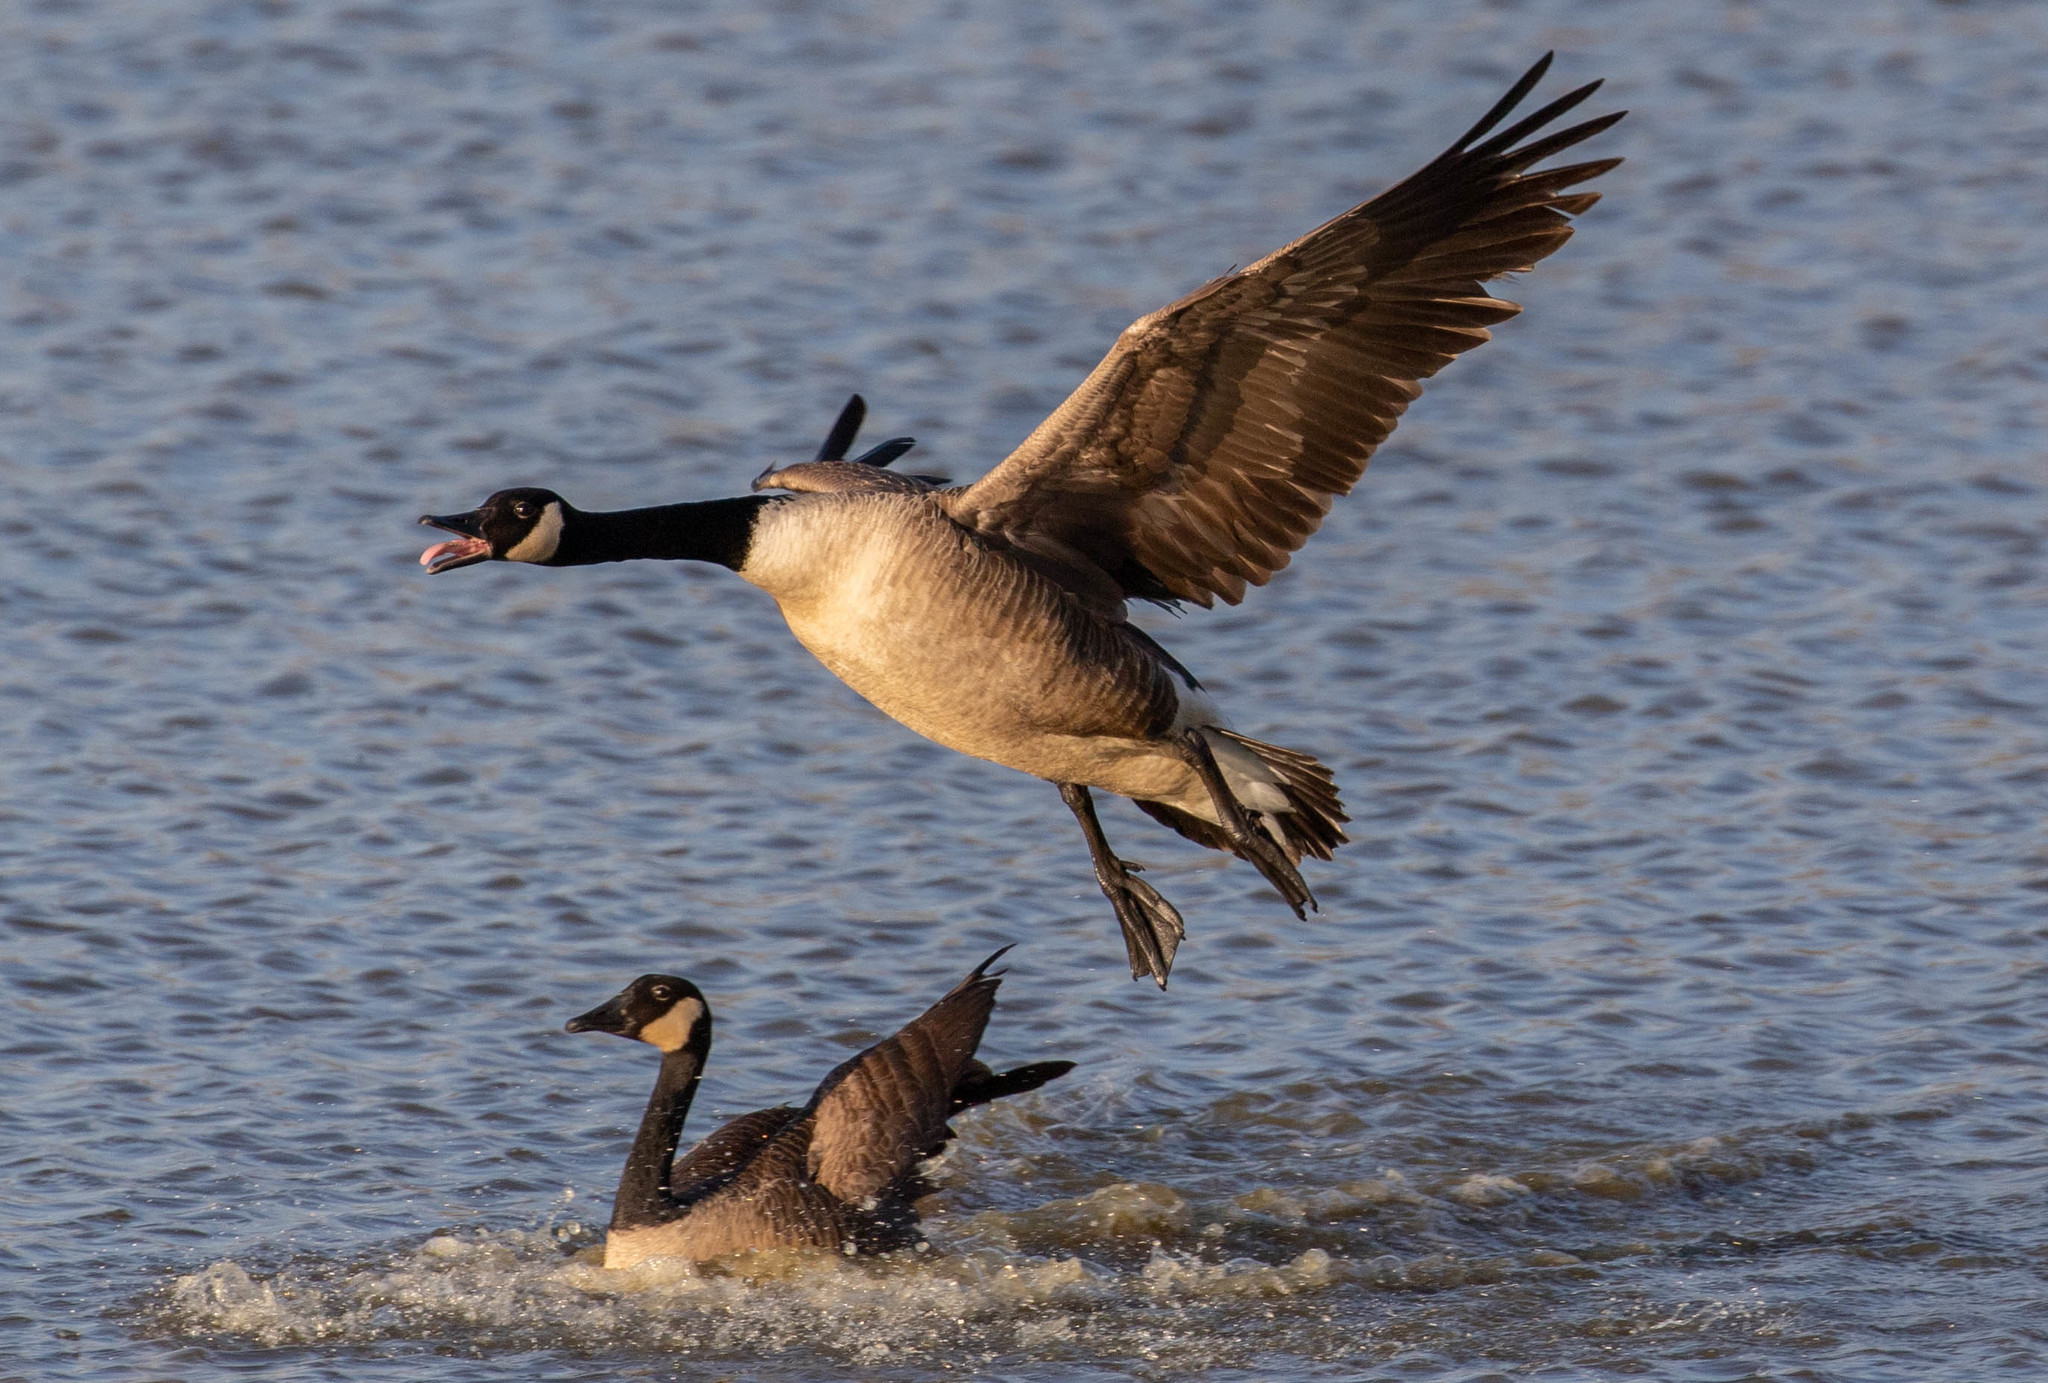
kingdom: Animalia
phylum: Chordata
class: Aves
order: Anseriformes
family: Anatidae
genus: Branta
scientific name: Branta canadensis
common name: Canada goose
